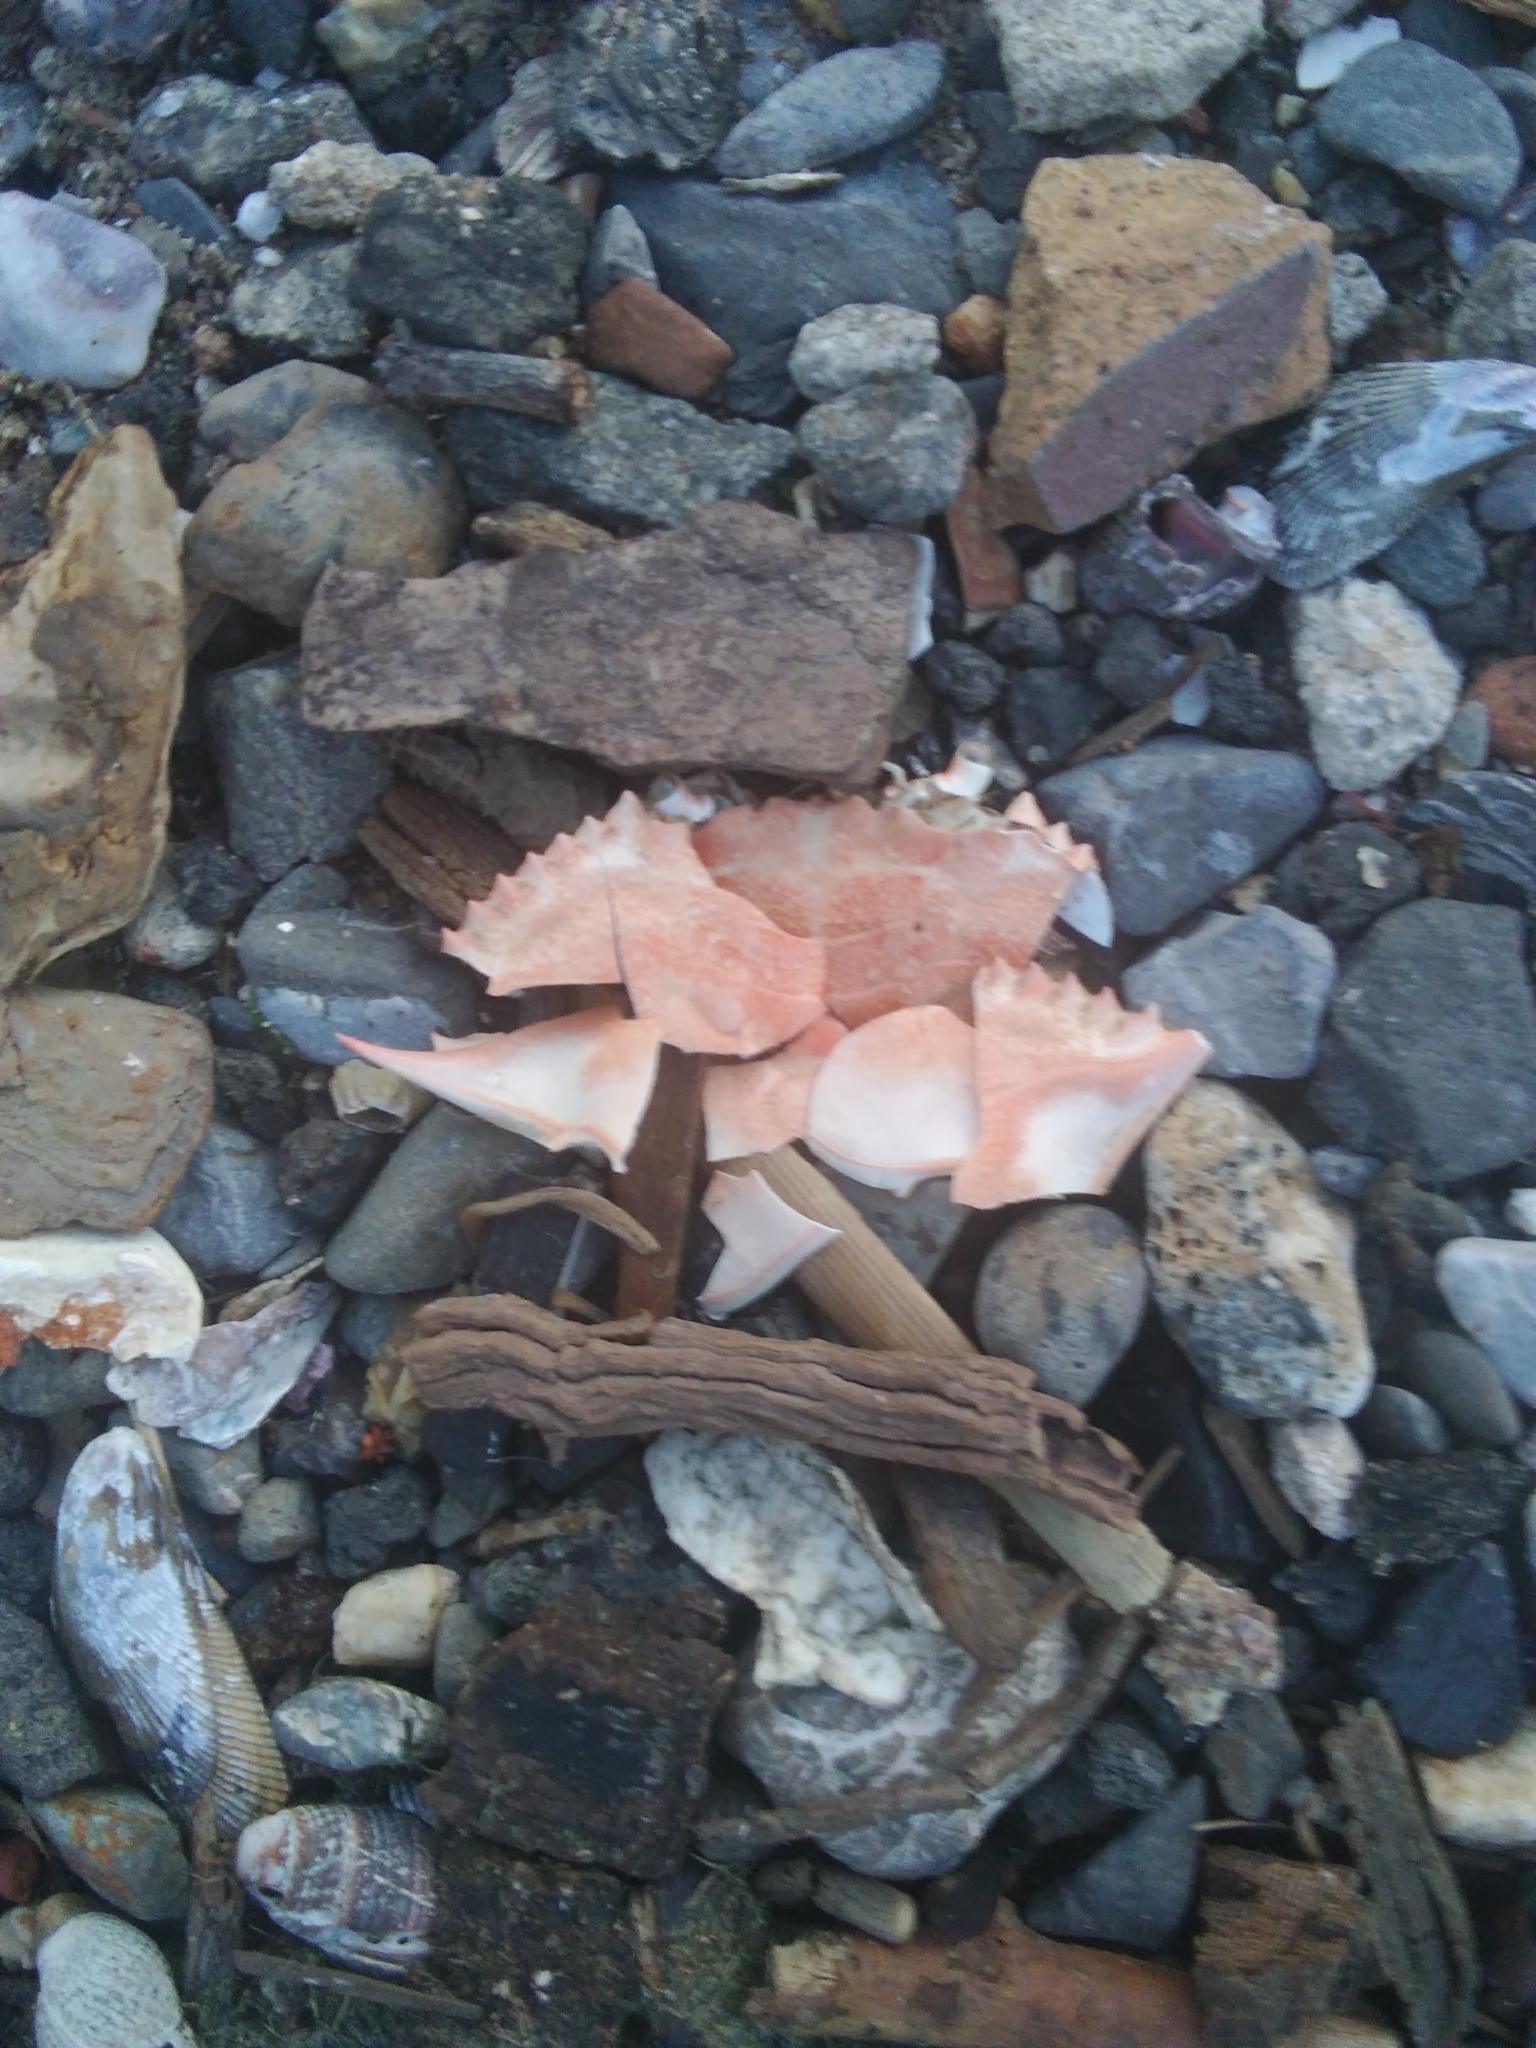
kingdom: Animalia
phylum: Arthropoda
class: Malacostraca
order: Decapoda
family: Portunidae
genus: Callinectes
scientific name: Callinectes sapidus
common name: Blue crab
